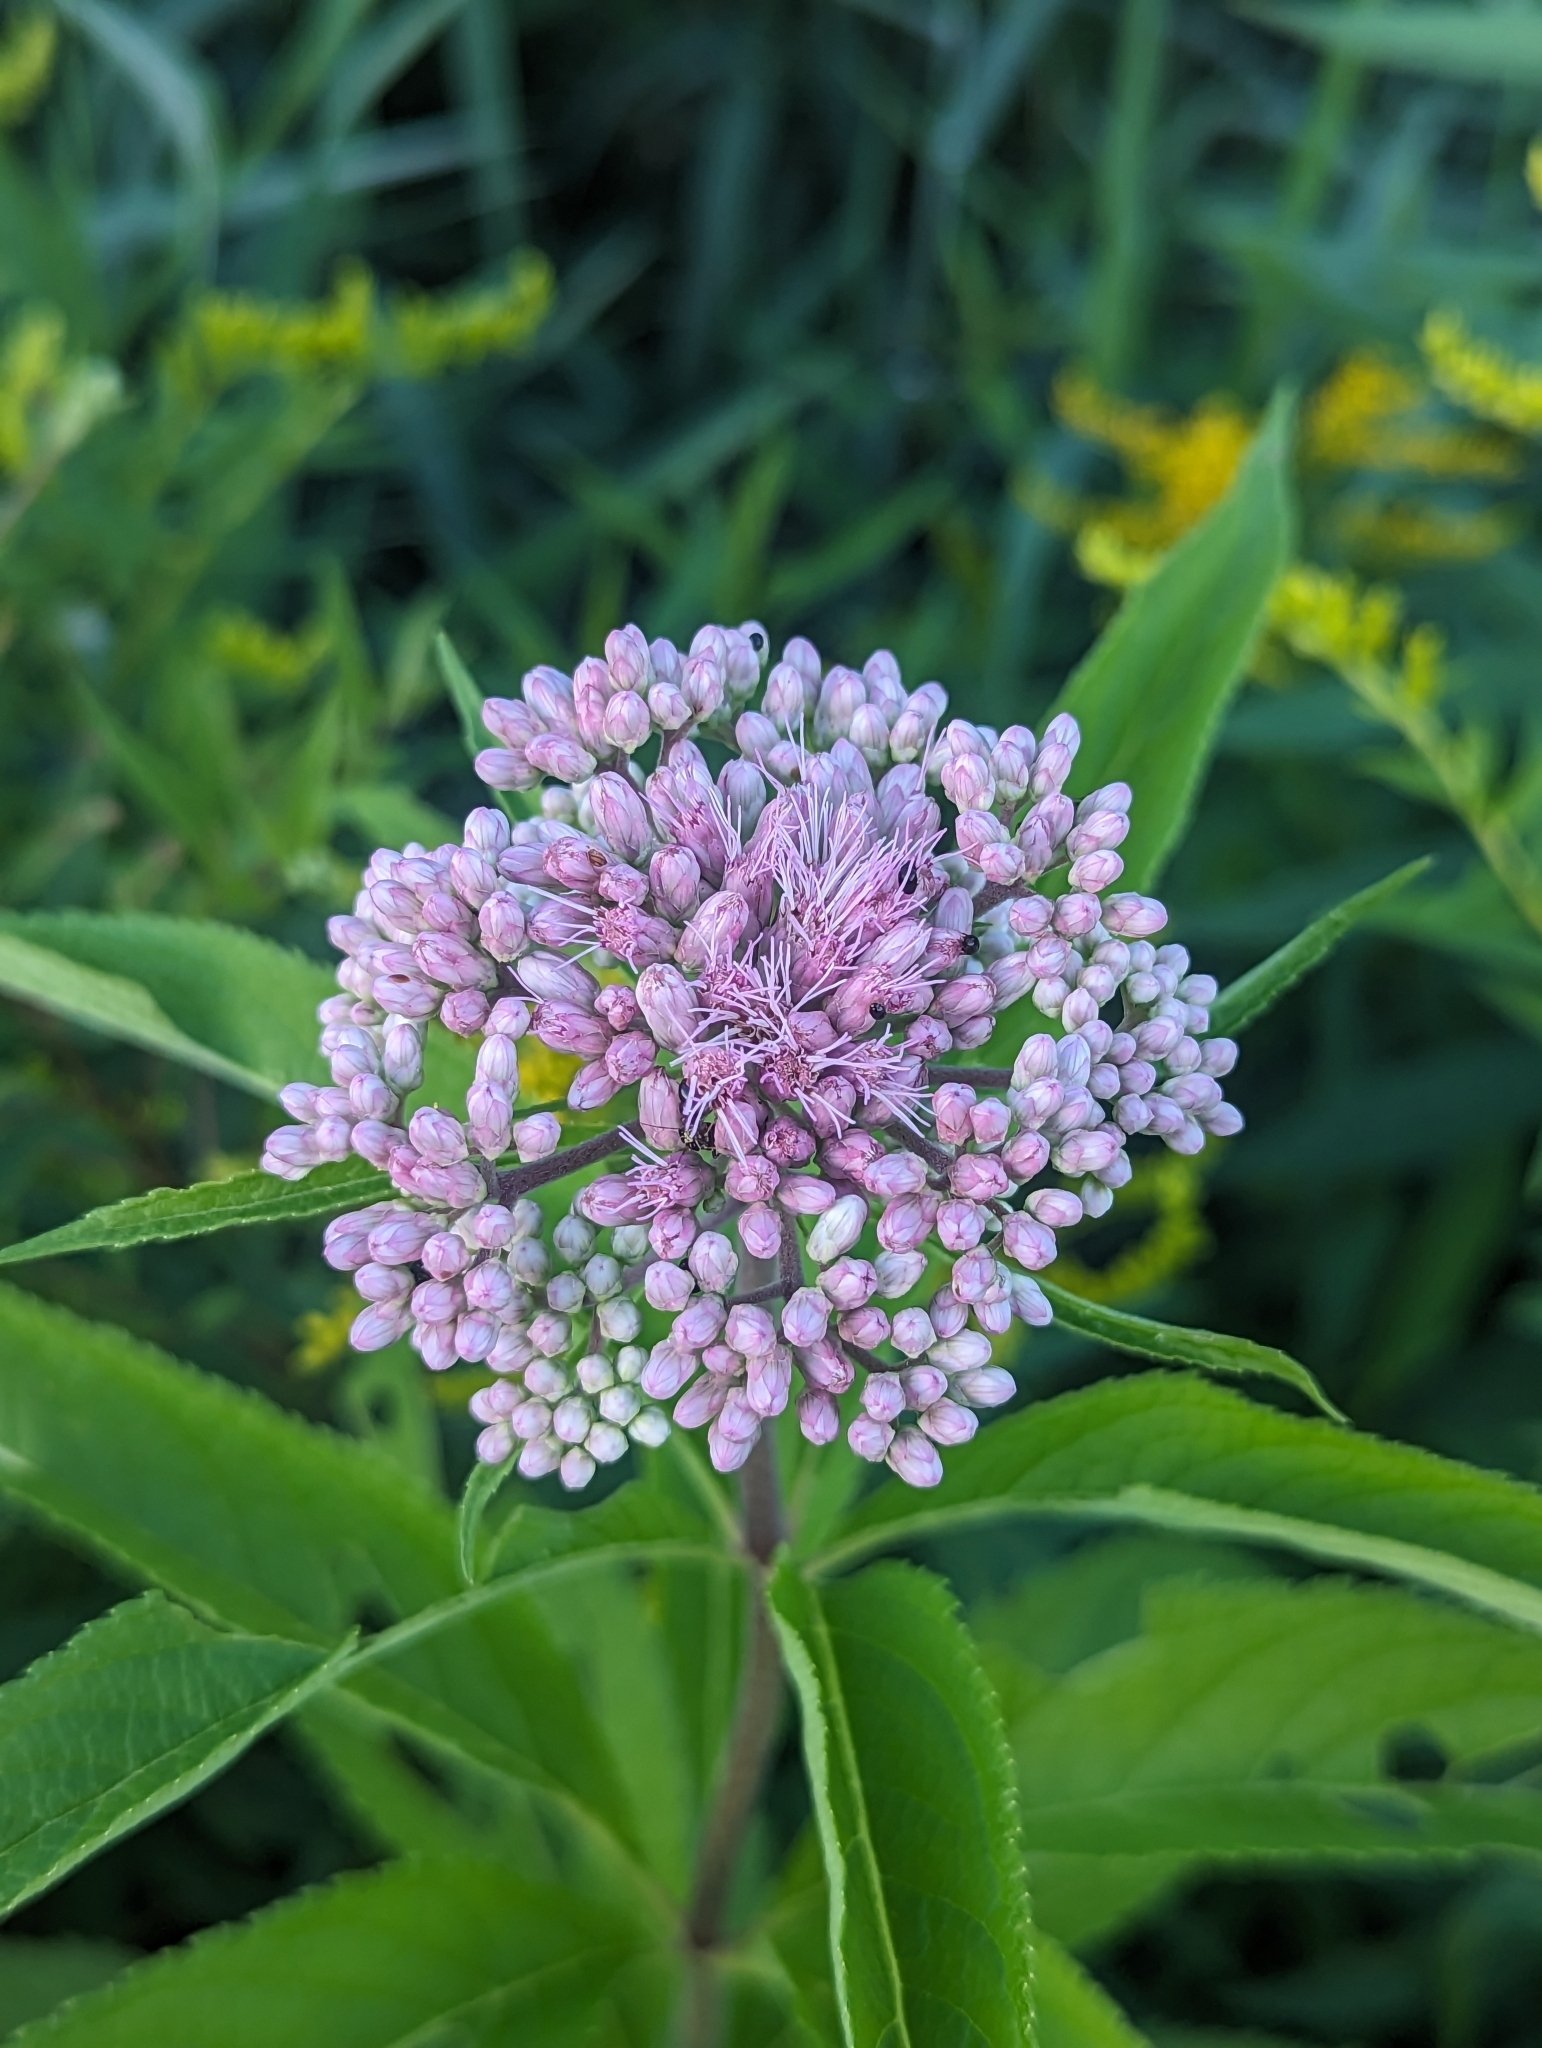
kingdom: Plantae
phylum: Tracheophyta
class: Magnoliopsida
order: Asterales
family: Asteraceae
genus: Eutrochium
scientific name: Eutrochium maculatum
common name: Spotted joe pye weed
